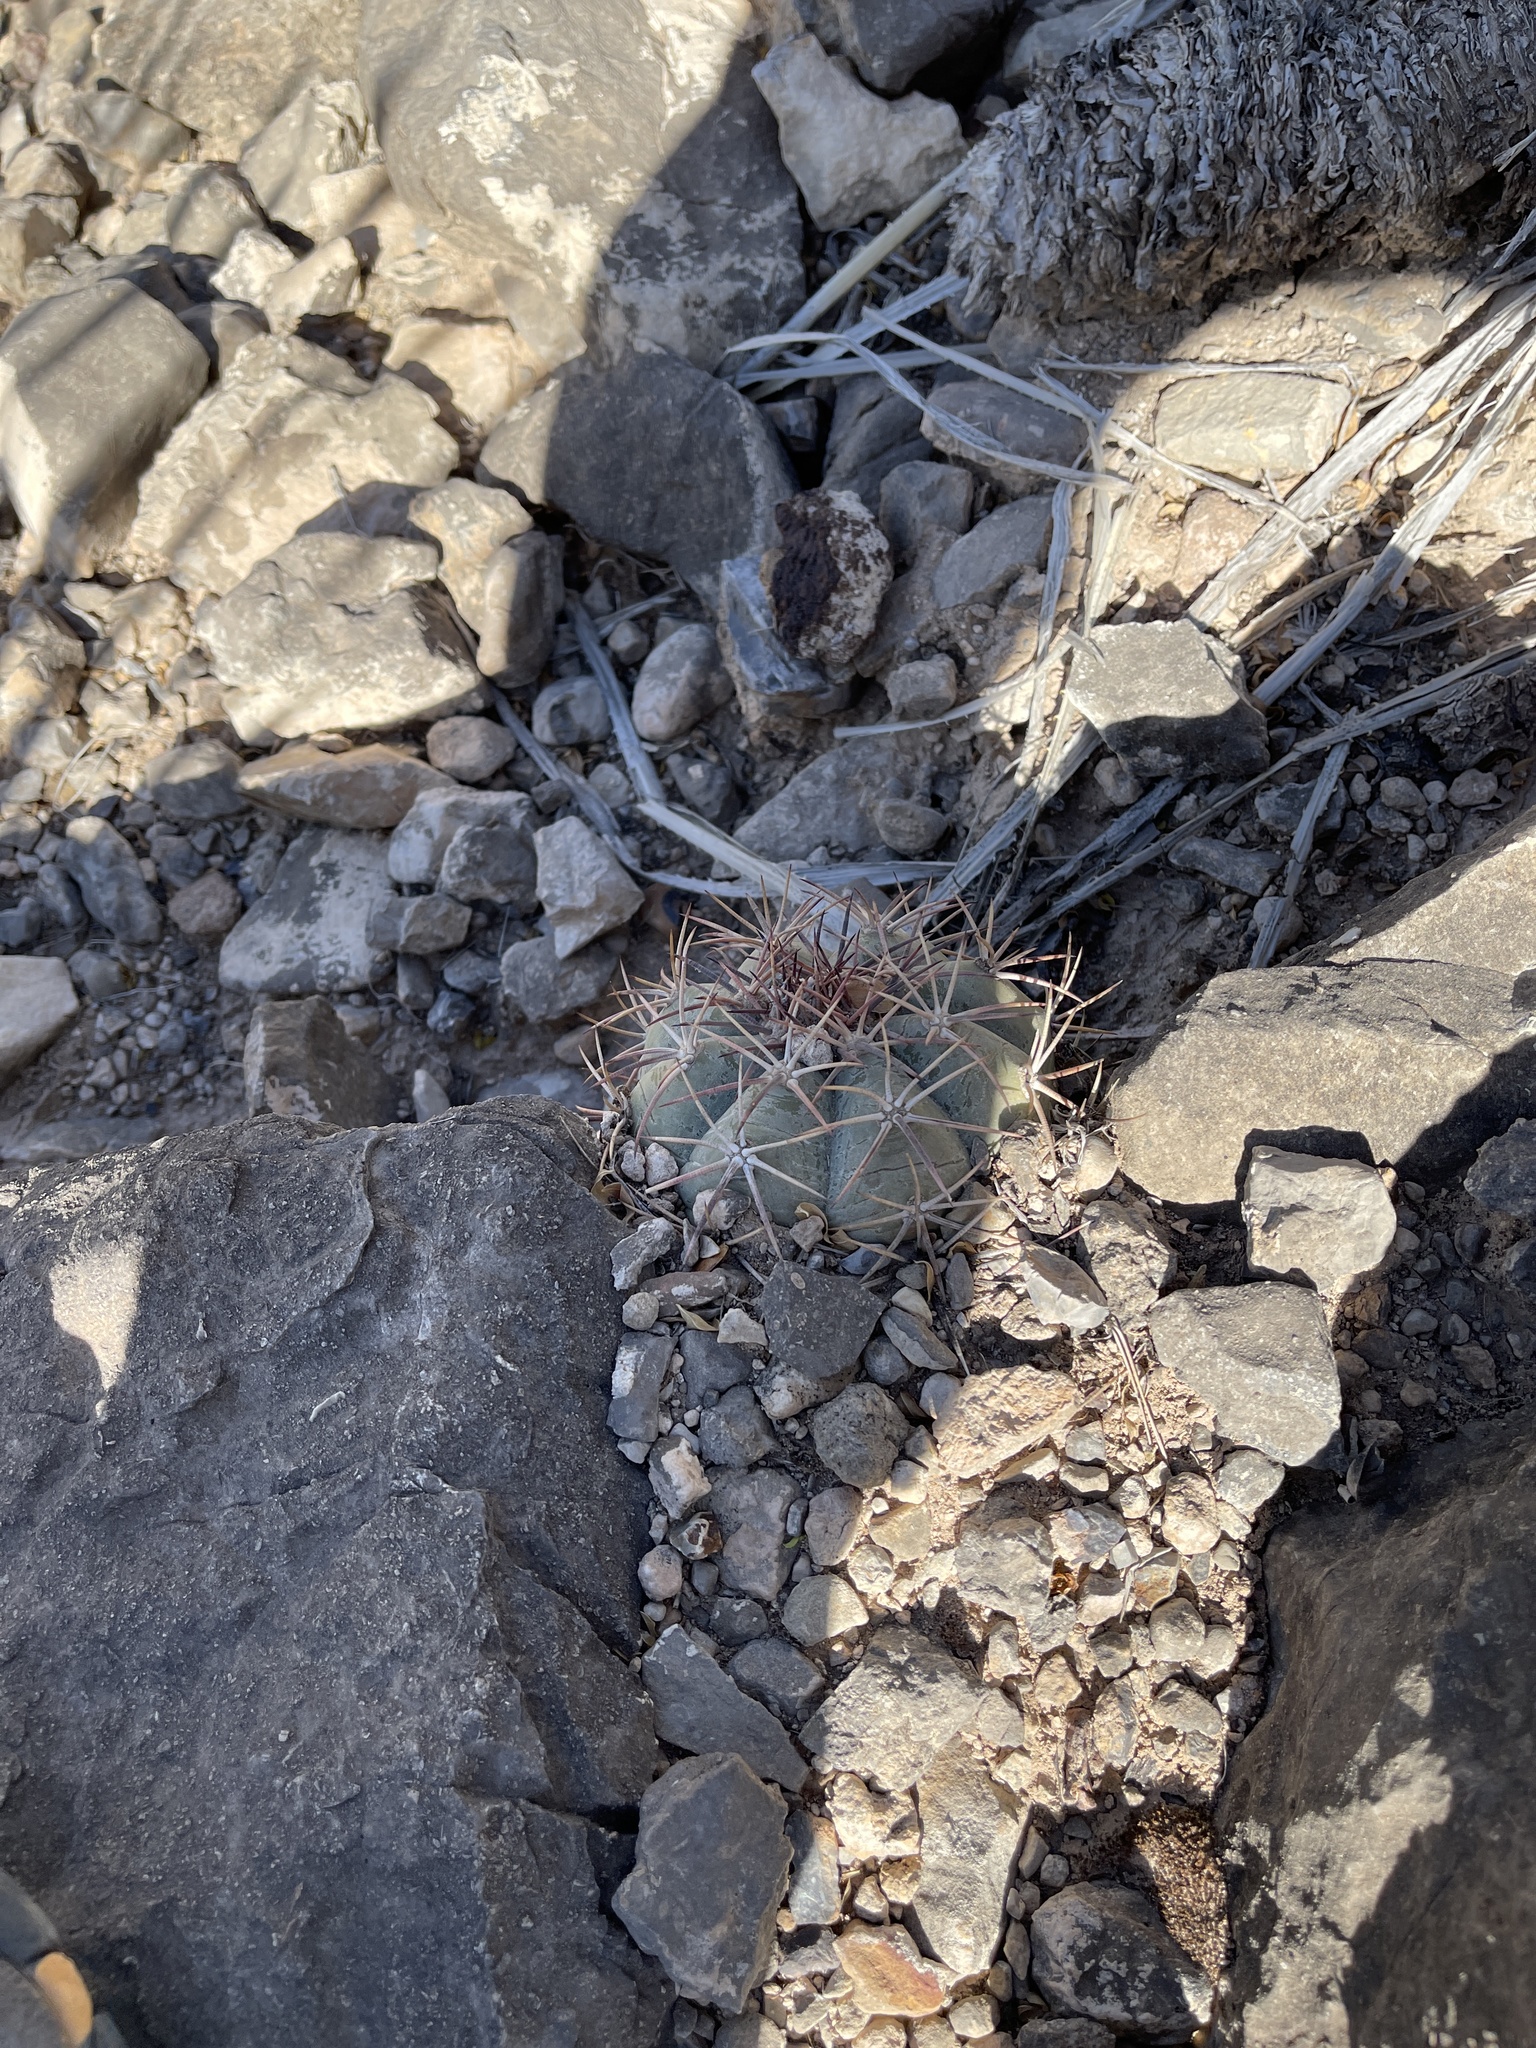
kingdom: Plantae
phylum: Tracheophyta
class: Magnoliopsida
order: Caryophyllales
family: Cactaceae
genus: Echinocactus
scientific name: Echinocactus horizonthalonius
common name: Devilshead
